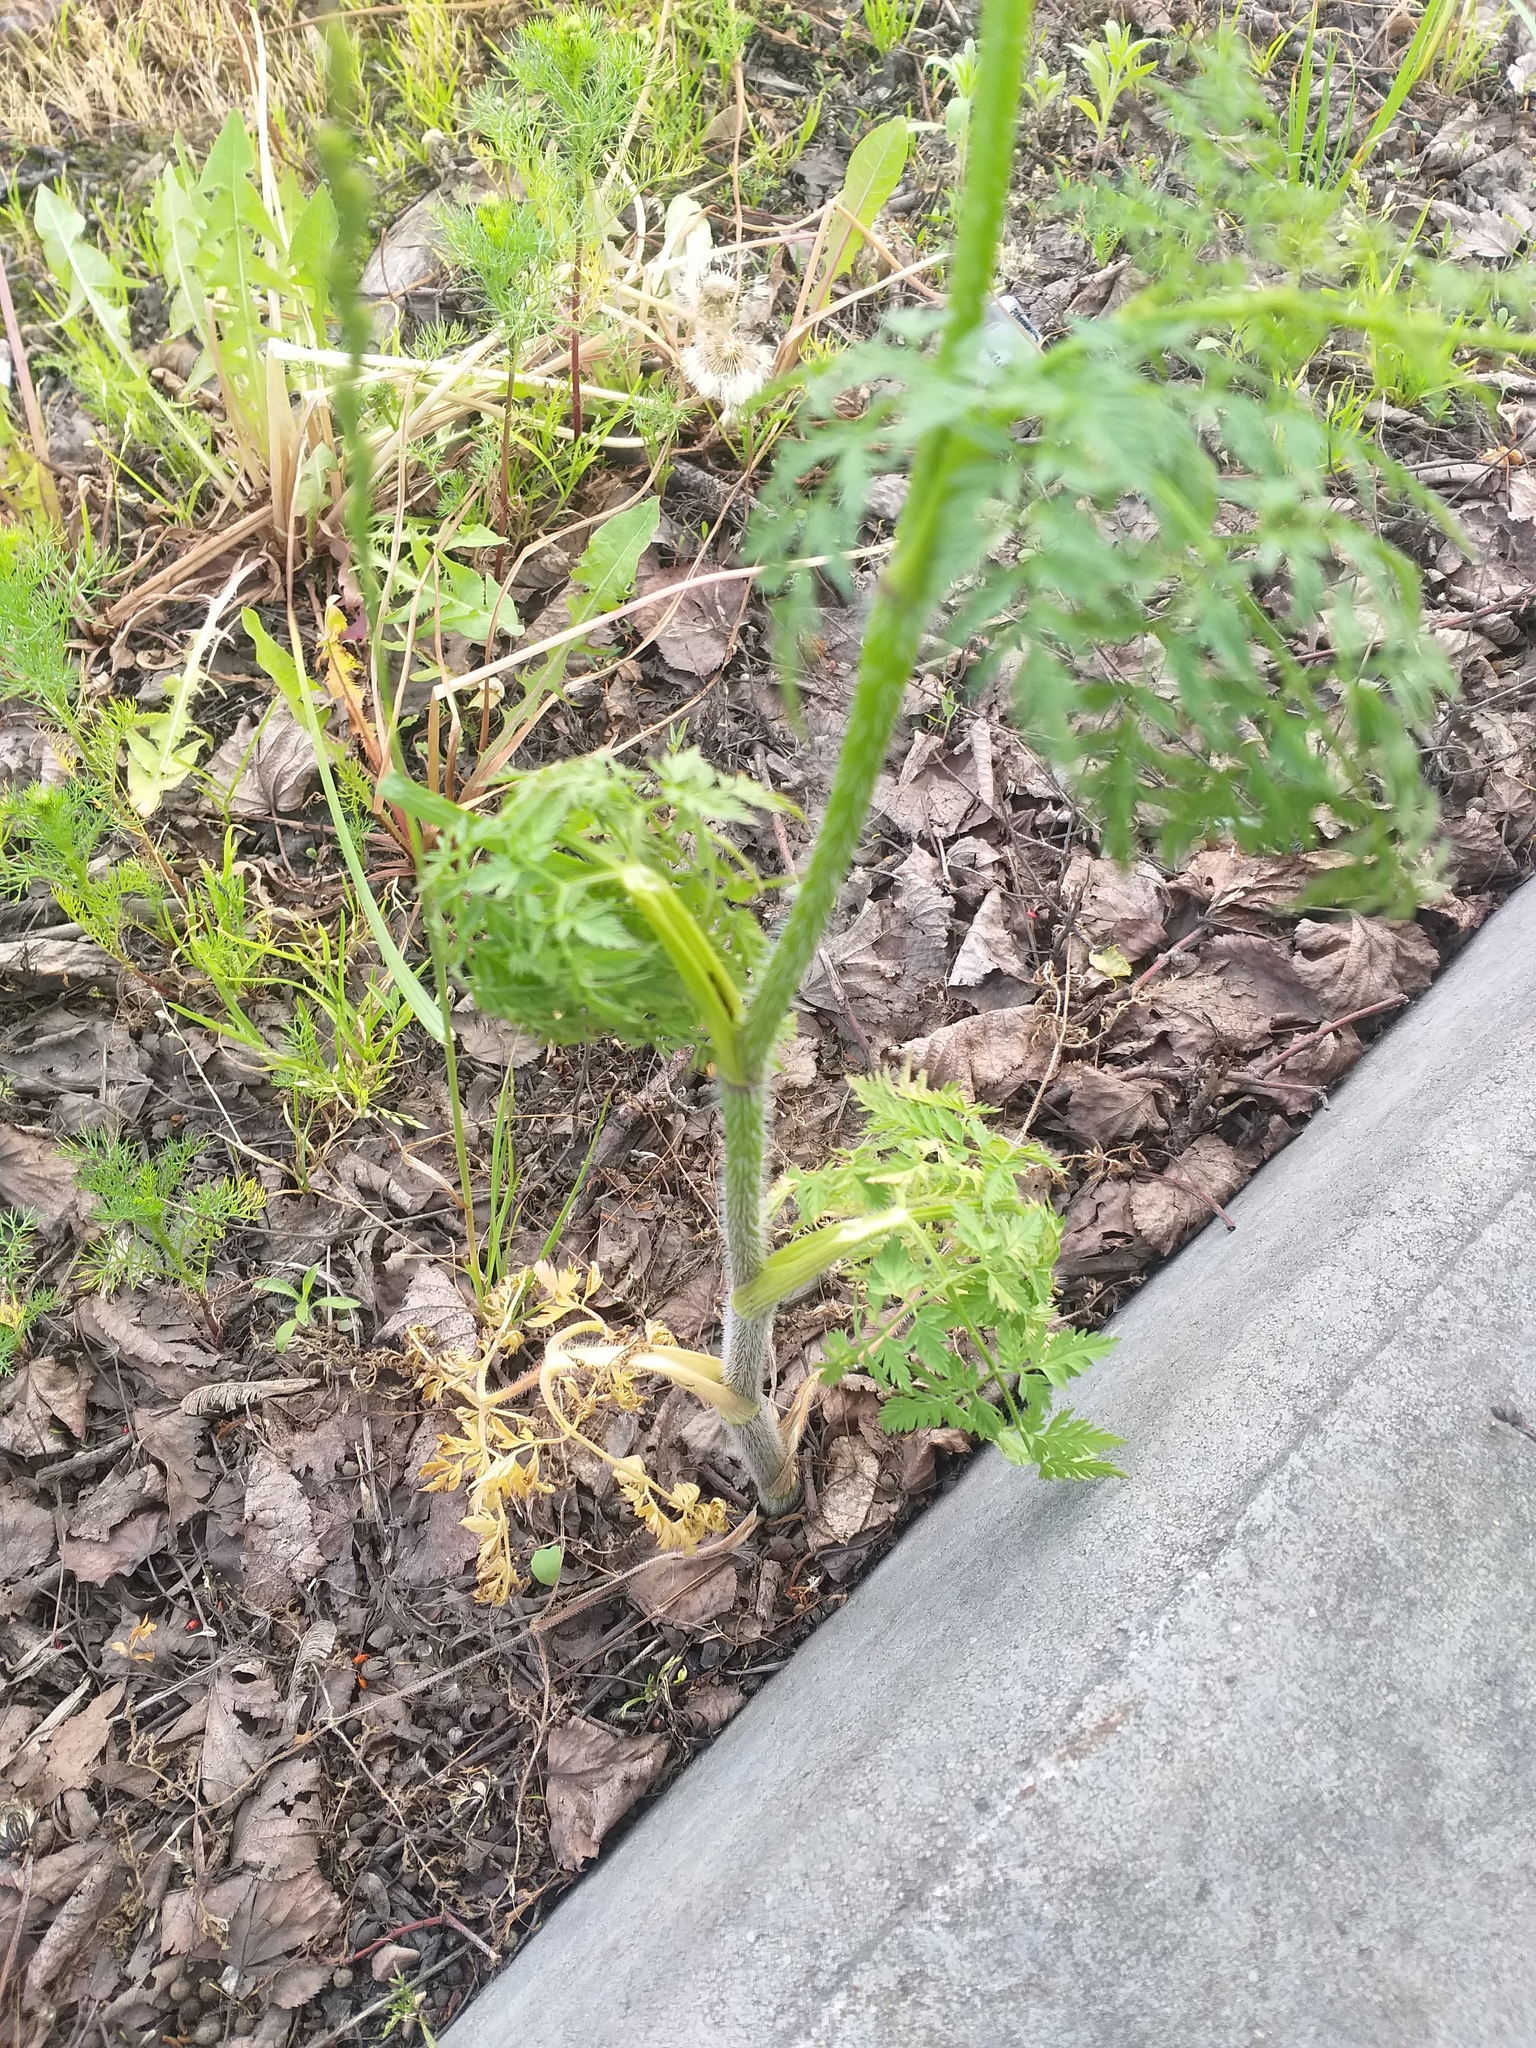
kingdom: Plantae
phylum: Tracheophyta
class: Magnoliopsida
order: Apiales
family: Apiaceae
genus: Chaerophyllum
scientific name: Chaerophyllum prescottii
